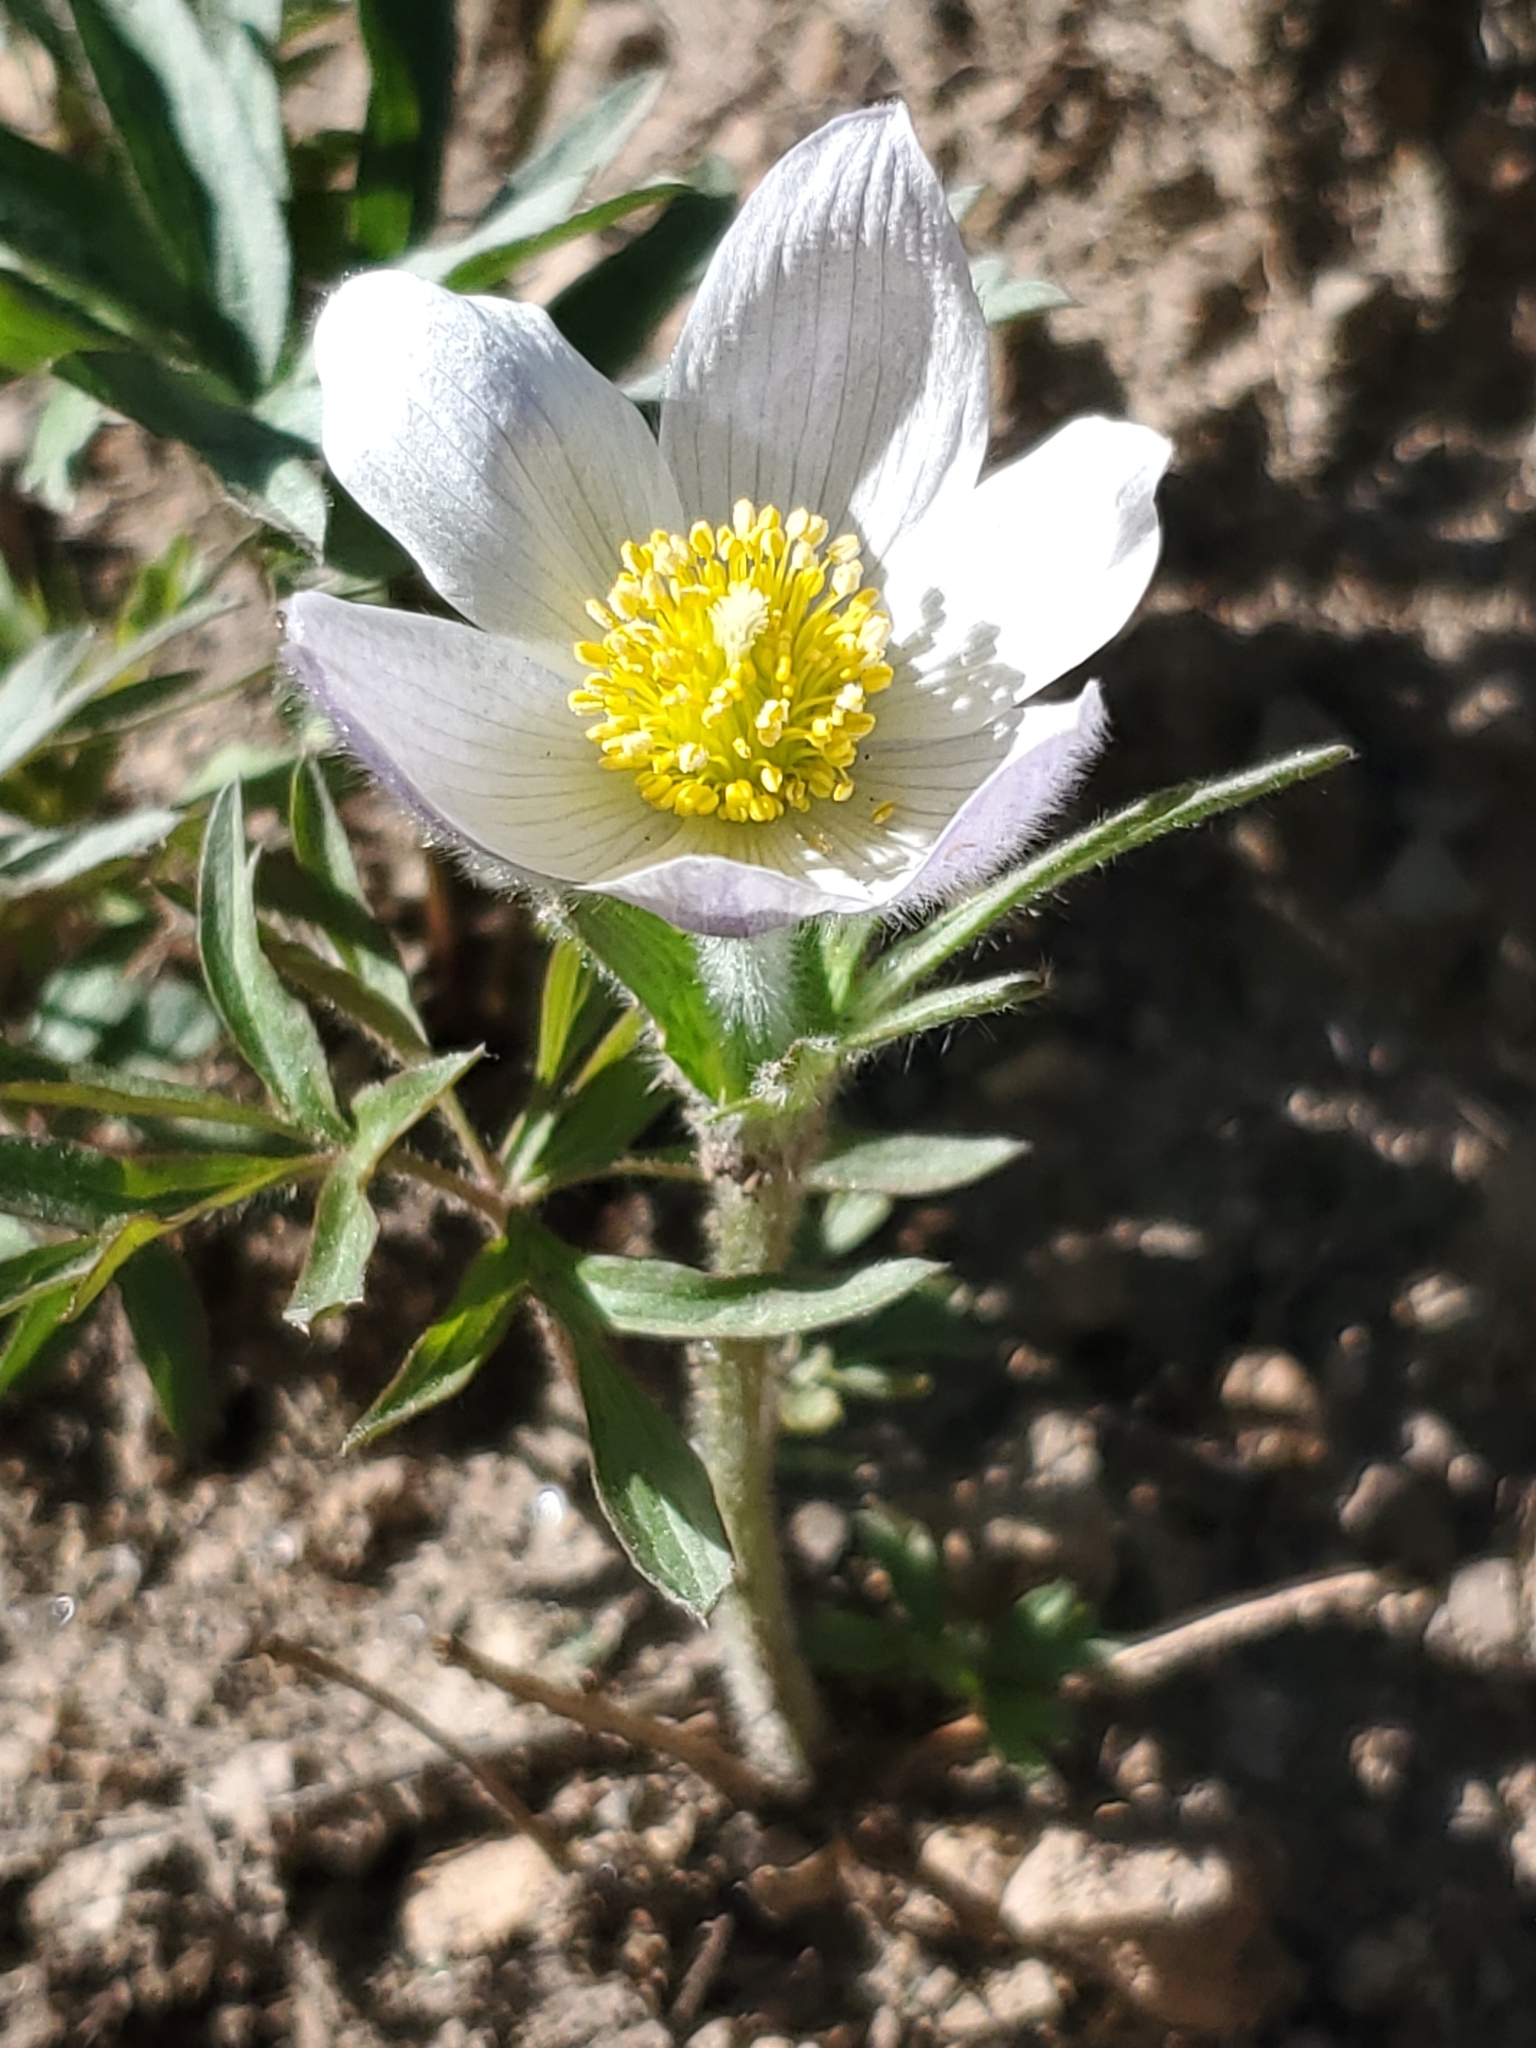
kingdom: Plantae
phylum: Tracheophyta
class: Magnoliopsida
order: Ranunculales
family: Ranunculaceae
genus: Pulsatilla
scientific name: Pulsatilla nuttalliana
